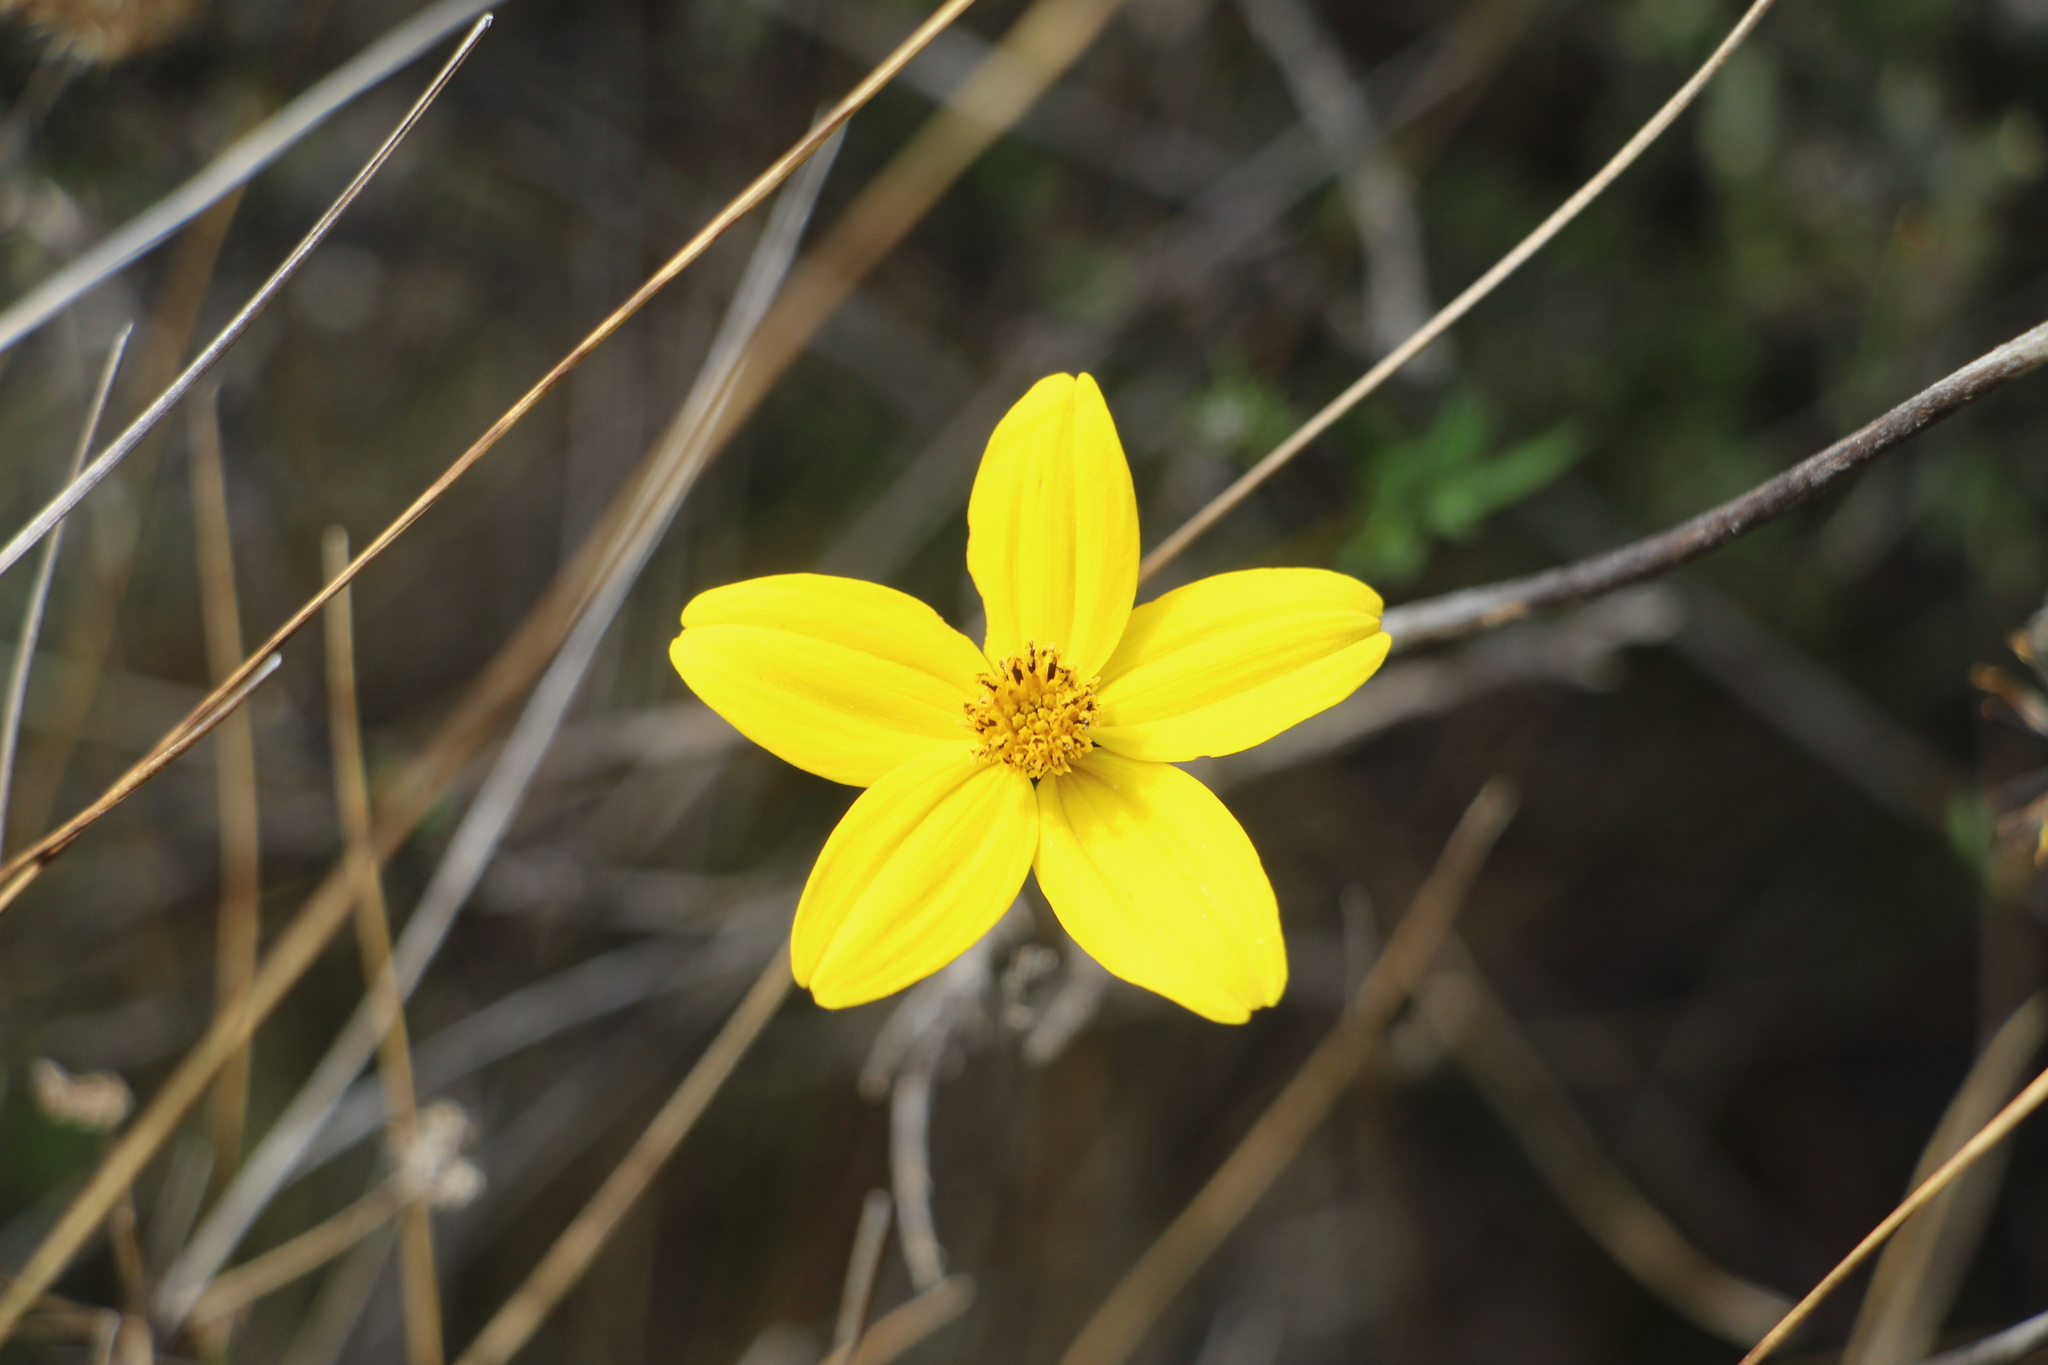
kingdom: Plantae
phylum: Tracheophyta
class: Magnoliopsida
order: Asterales
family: Asteraceae
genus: Bidens
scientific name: Bidens andicola
